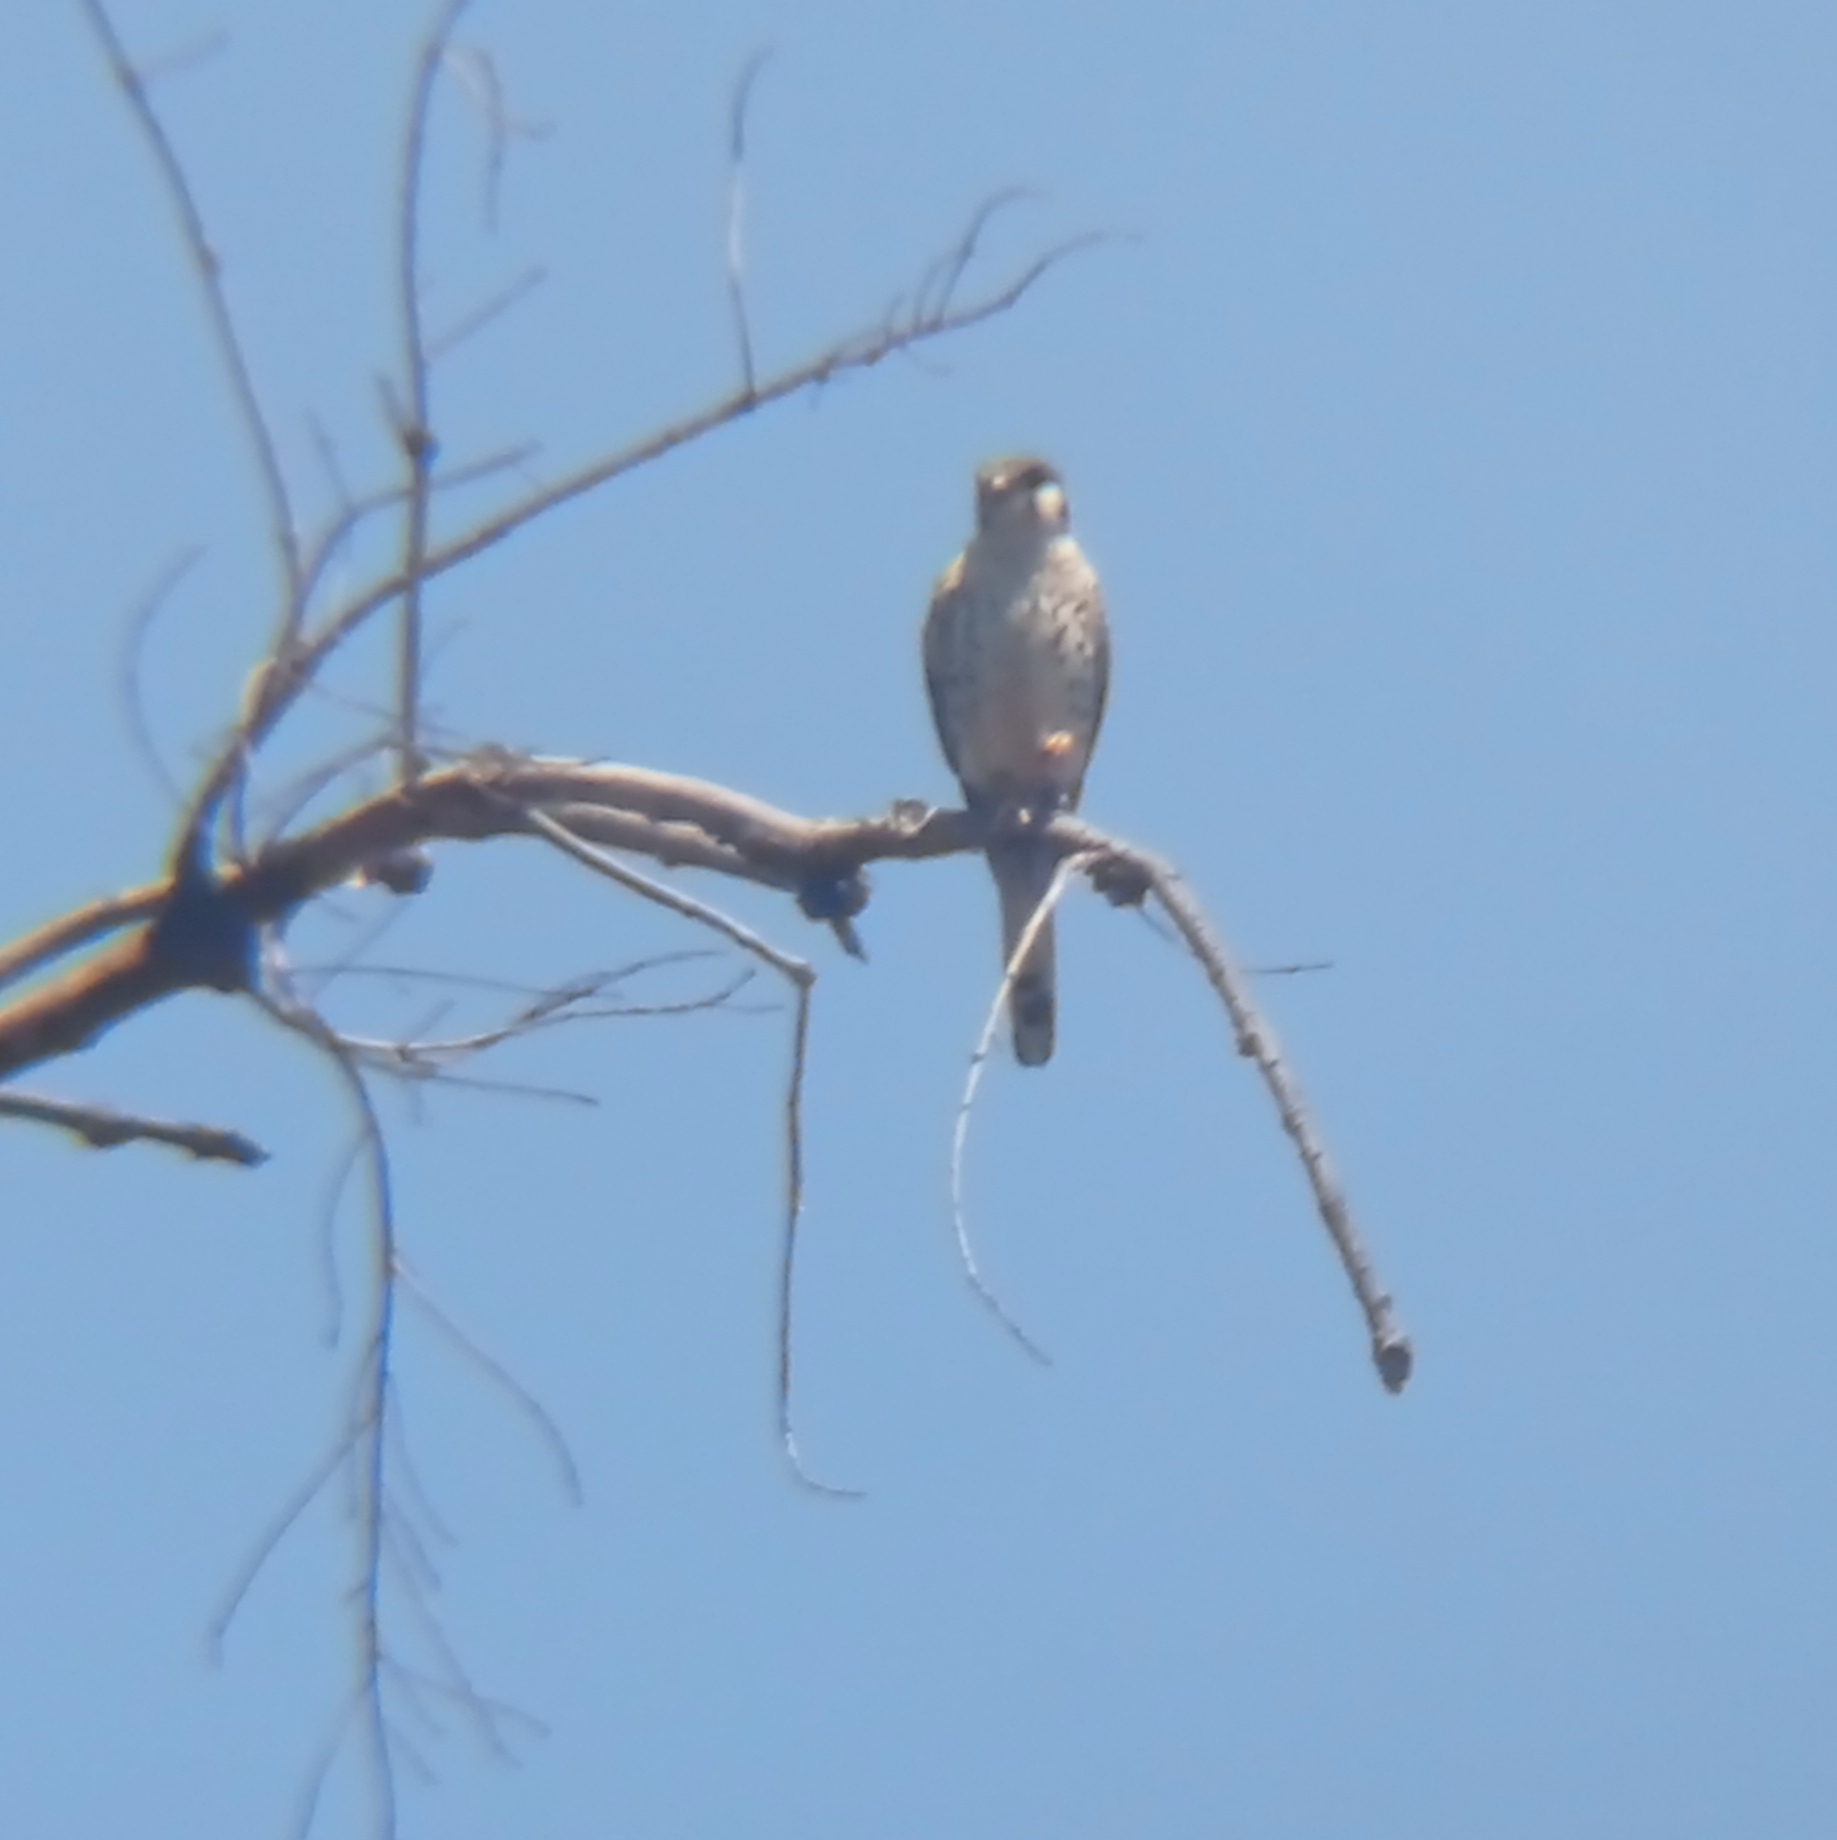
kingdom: Animalia
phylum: Chordata
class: Aves
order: Falconiformes
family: Falconidae
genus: Falco
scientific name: Falco sparverius
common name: American kestrel
